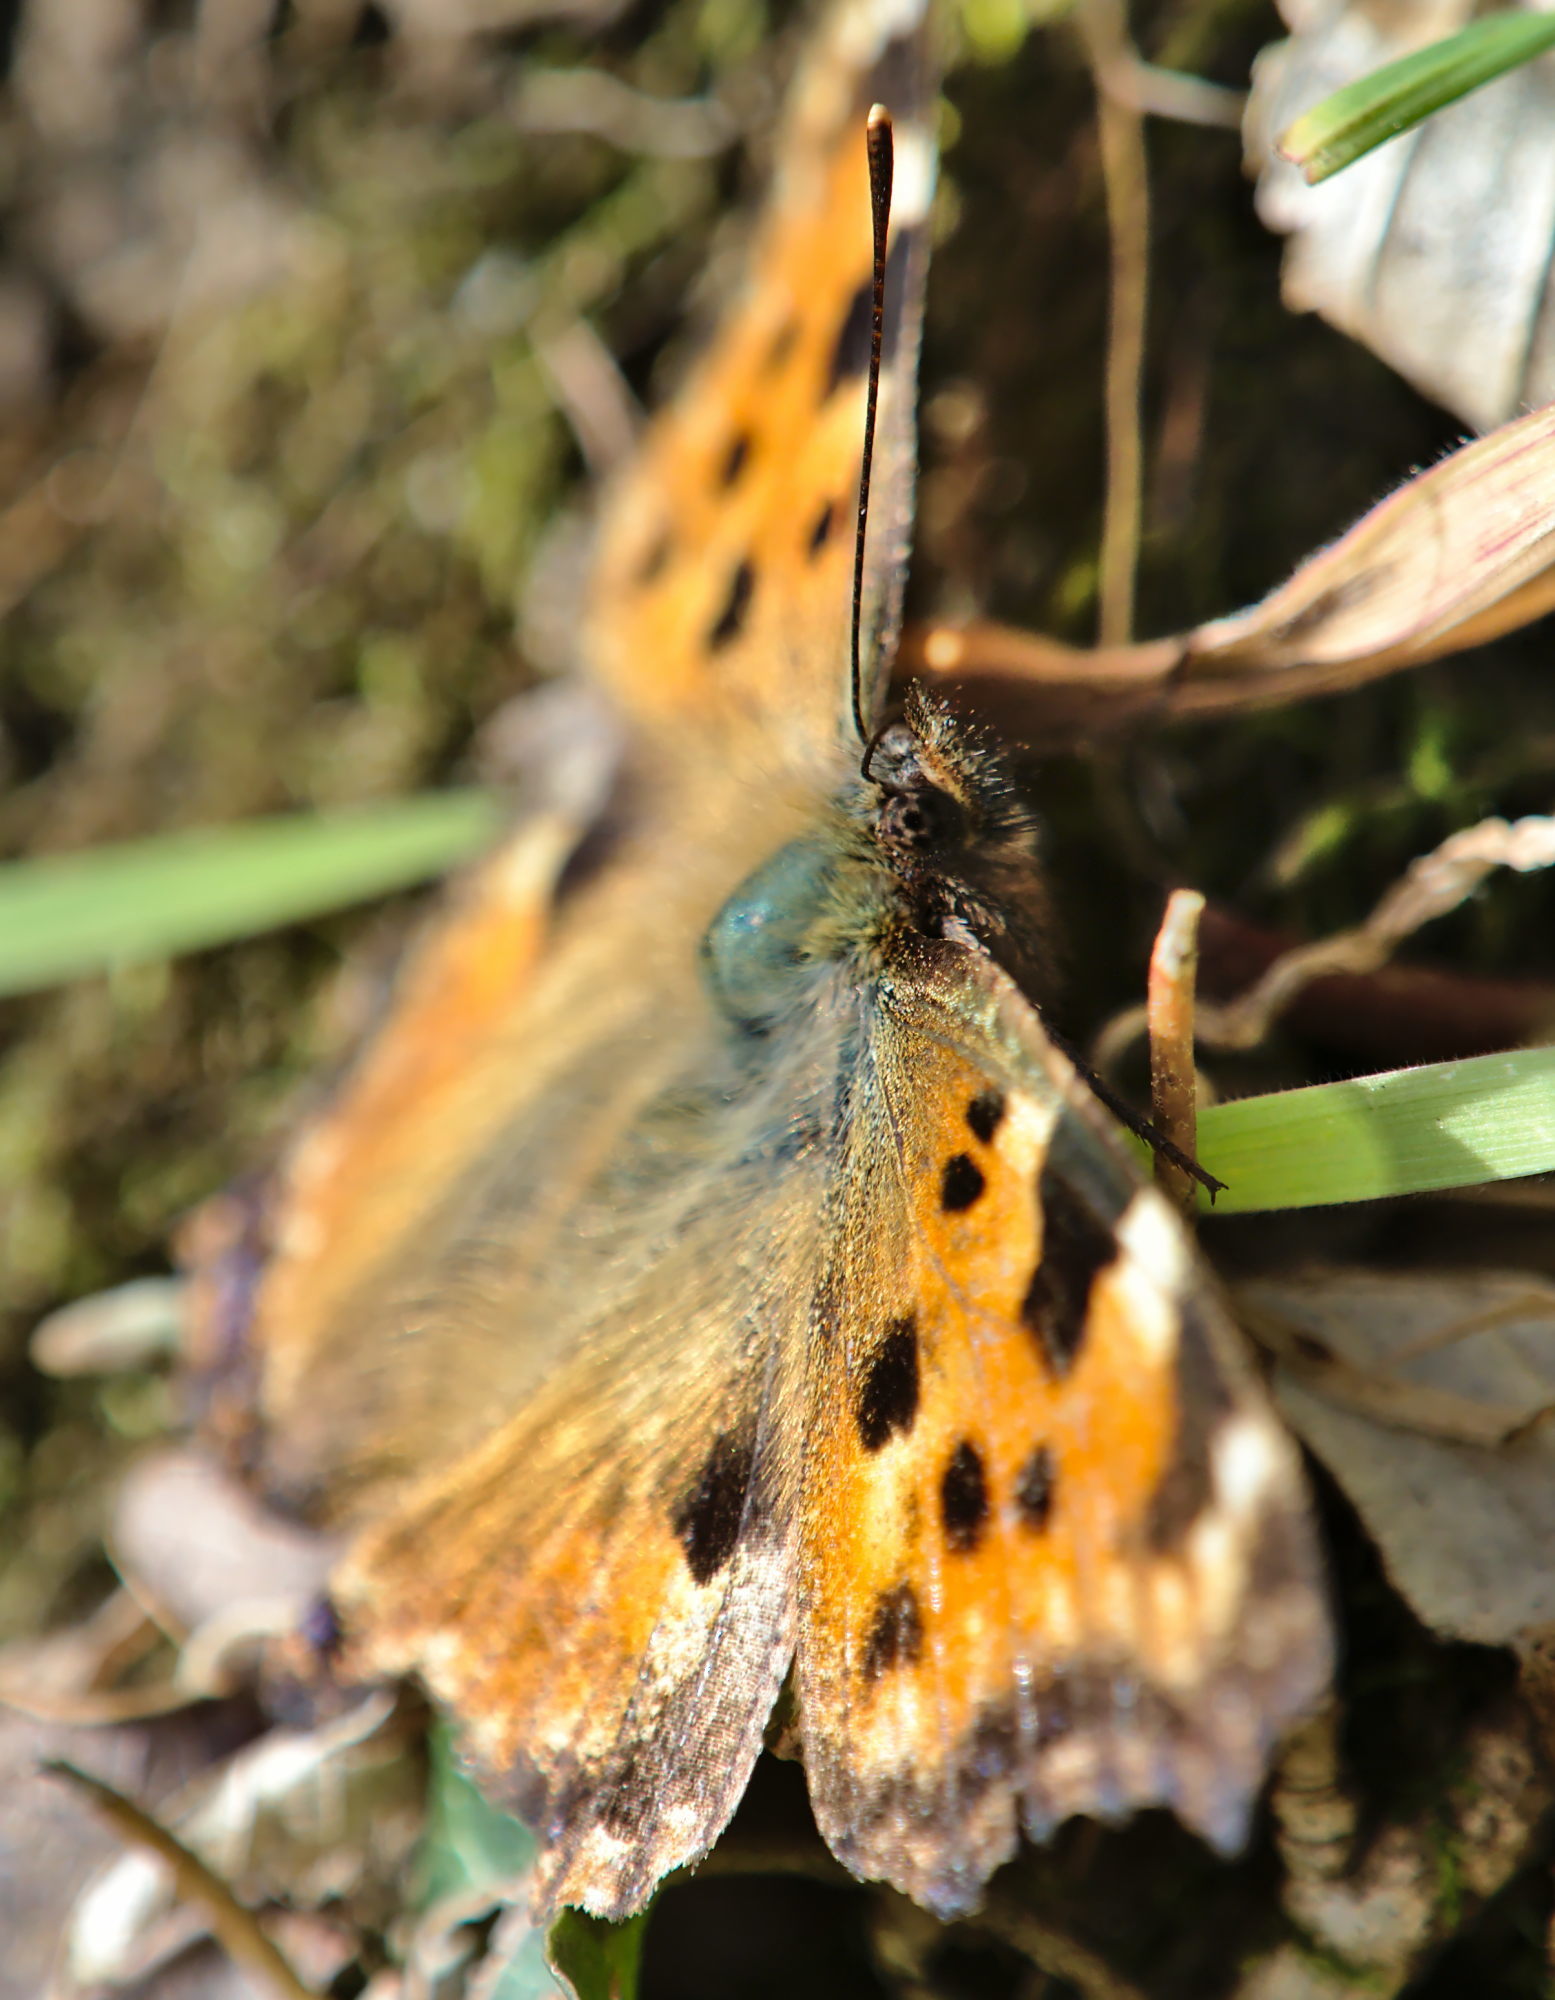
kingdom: Animalia
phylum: Arthropoda
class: Insecta
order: Lepidoptera
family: Nymphalidae
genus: Nymphalis
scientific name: Nymphalis polychloros
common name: Large tortoiseshell
